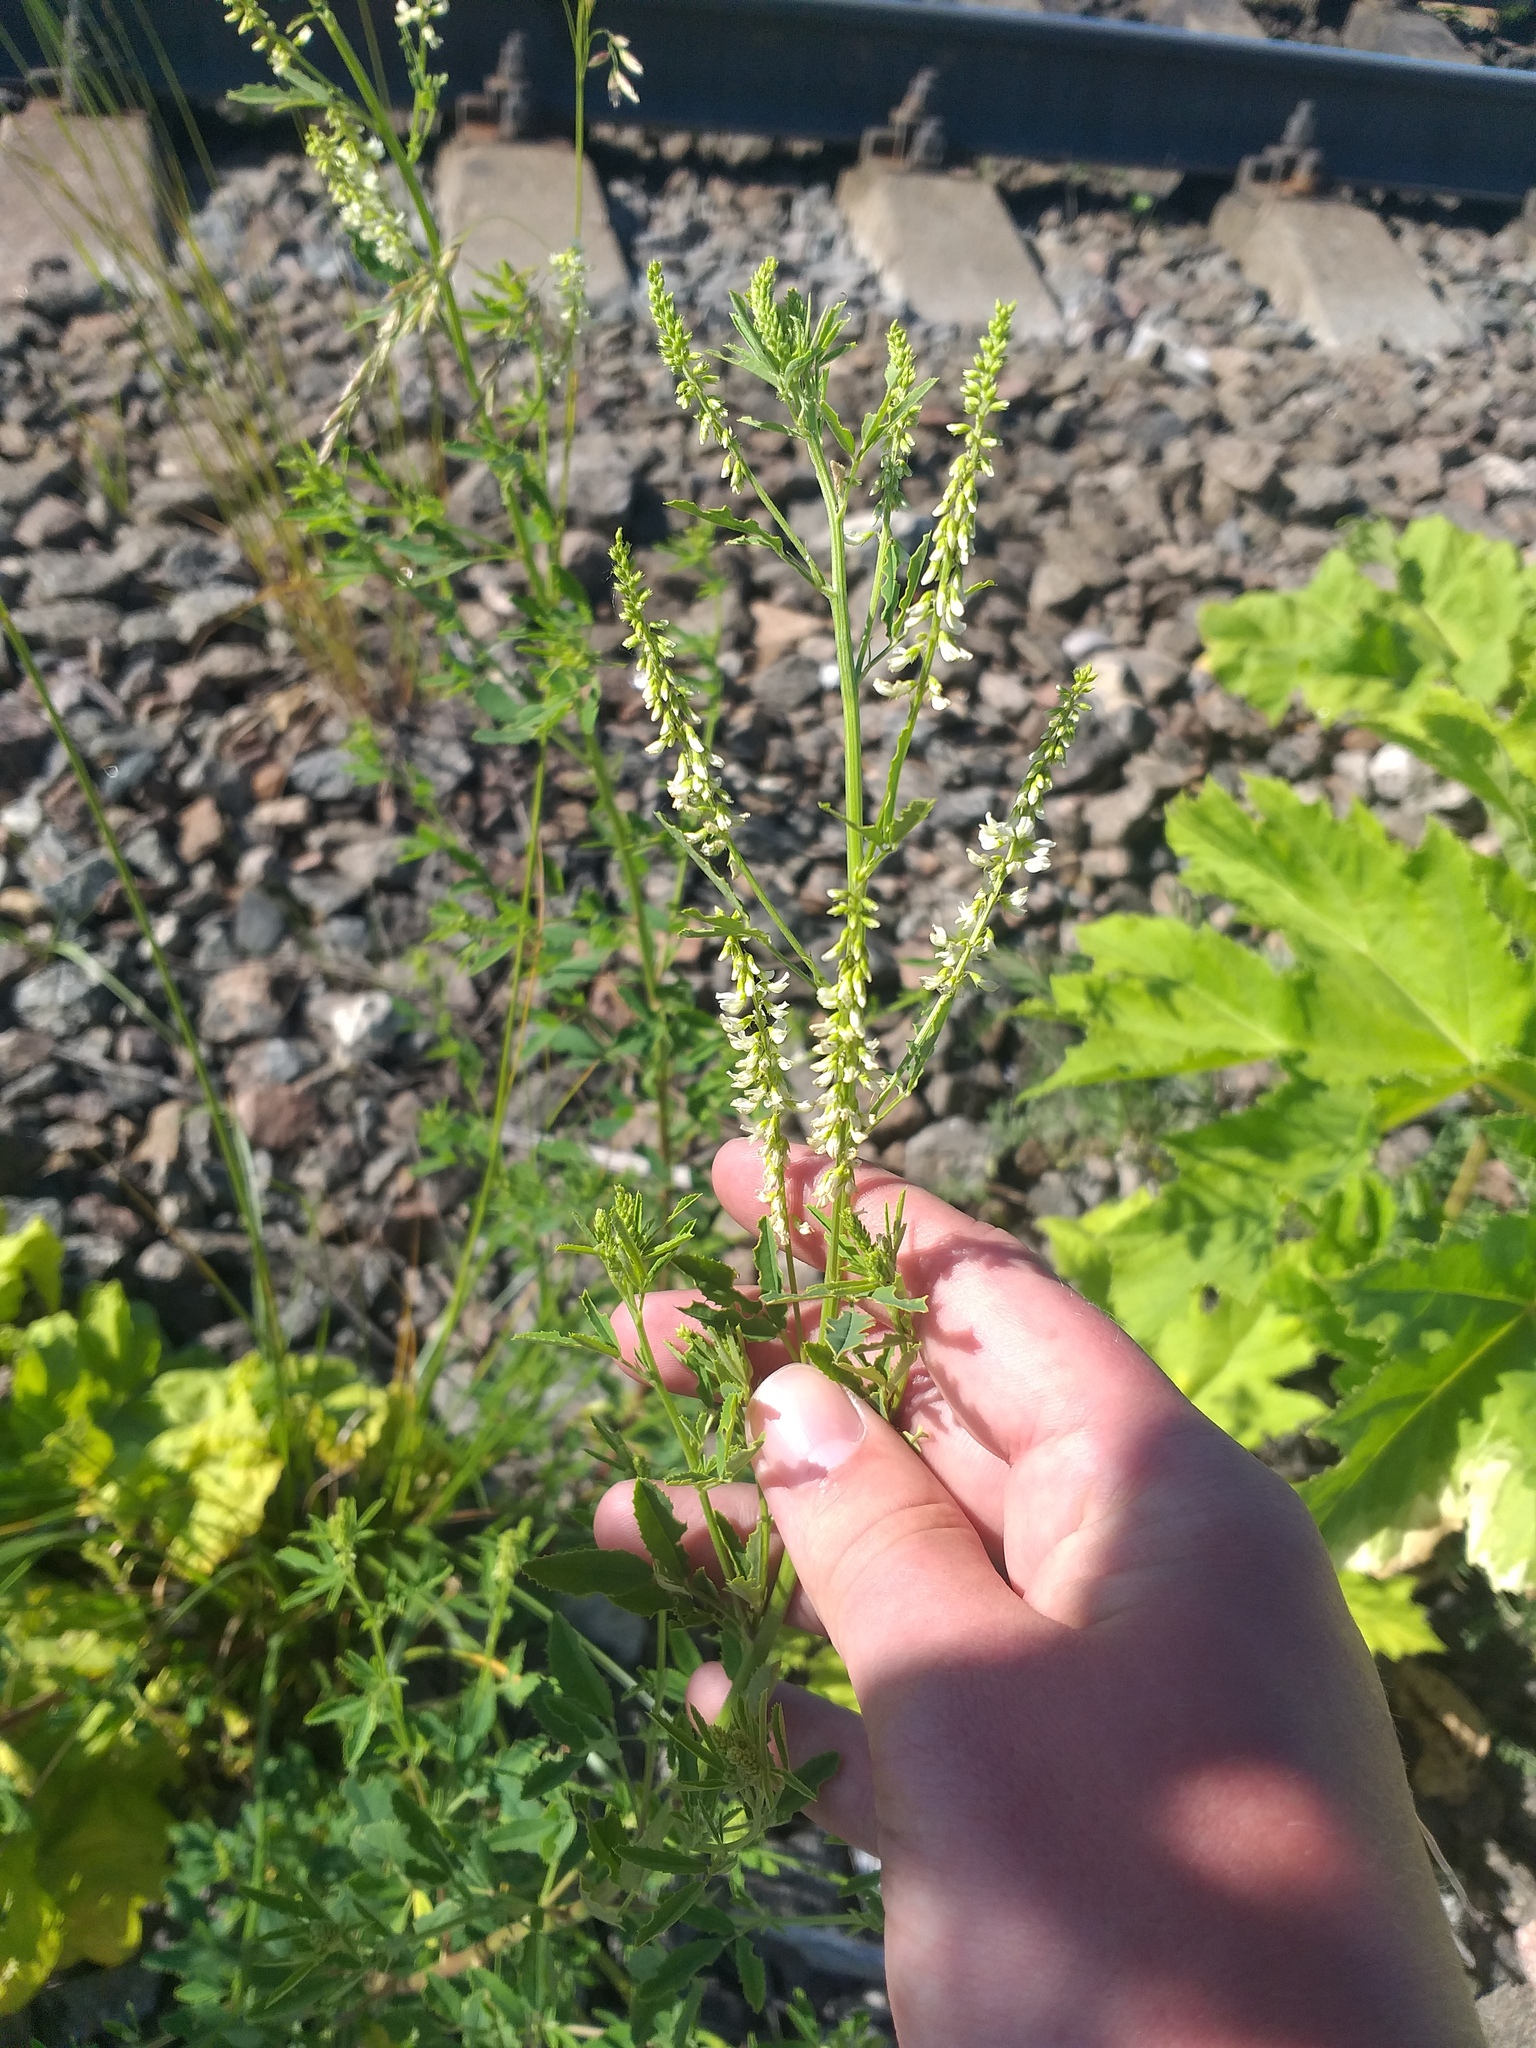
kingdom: Plantae
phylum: Tracheophyta
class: Magnoliopsida
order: Fabales
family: Fabaceae
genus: Melilotus
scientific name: Melilotus albus
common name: White melilot
